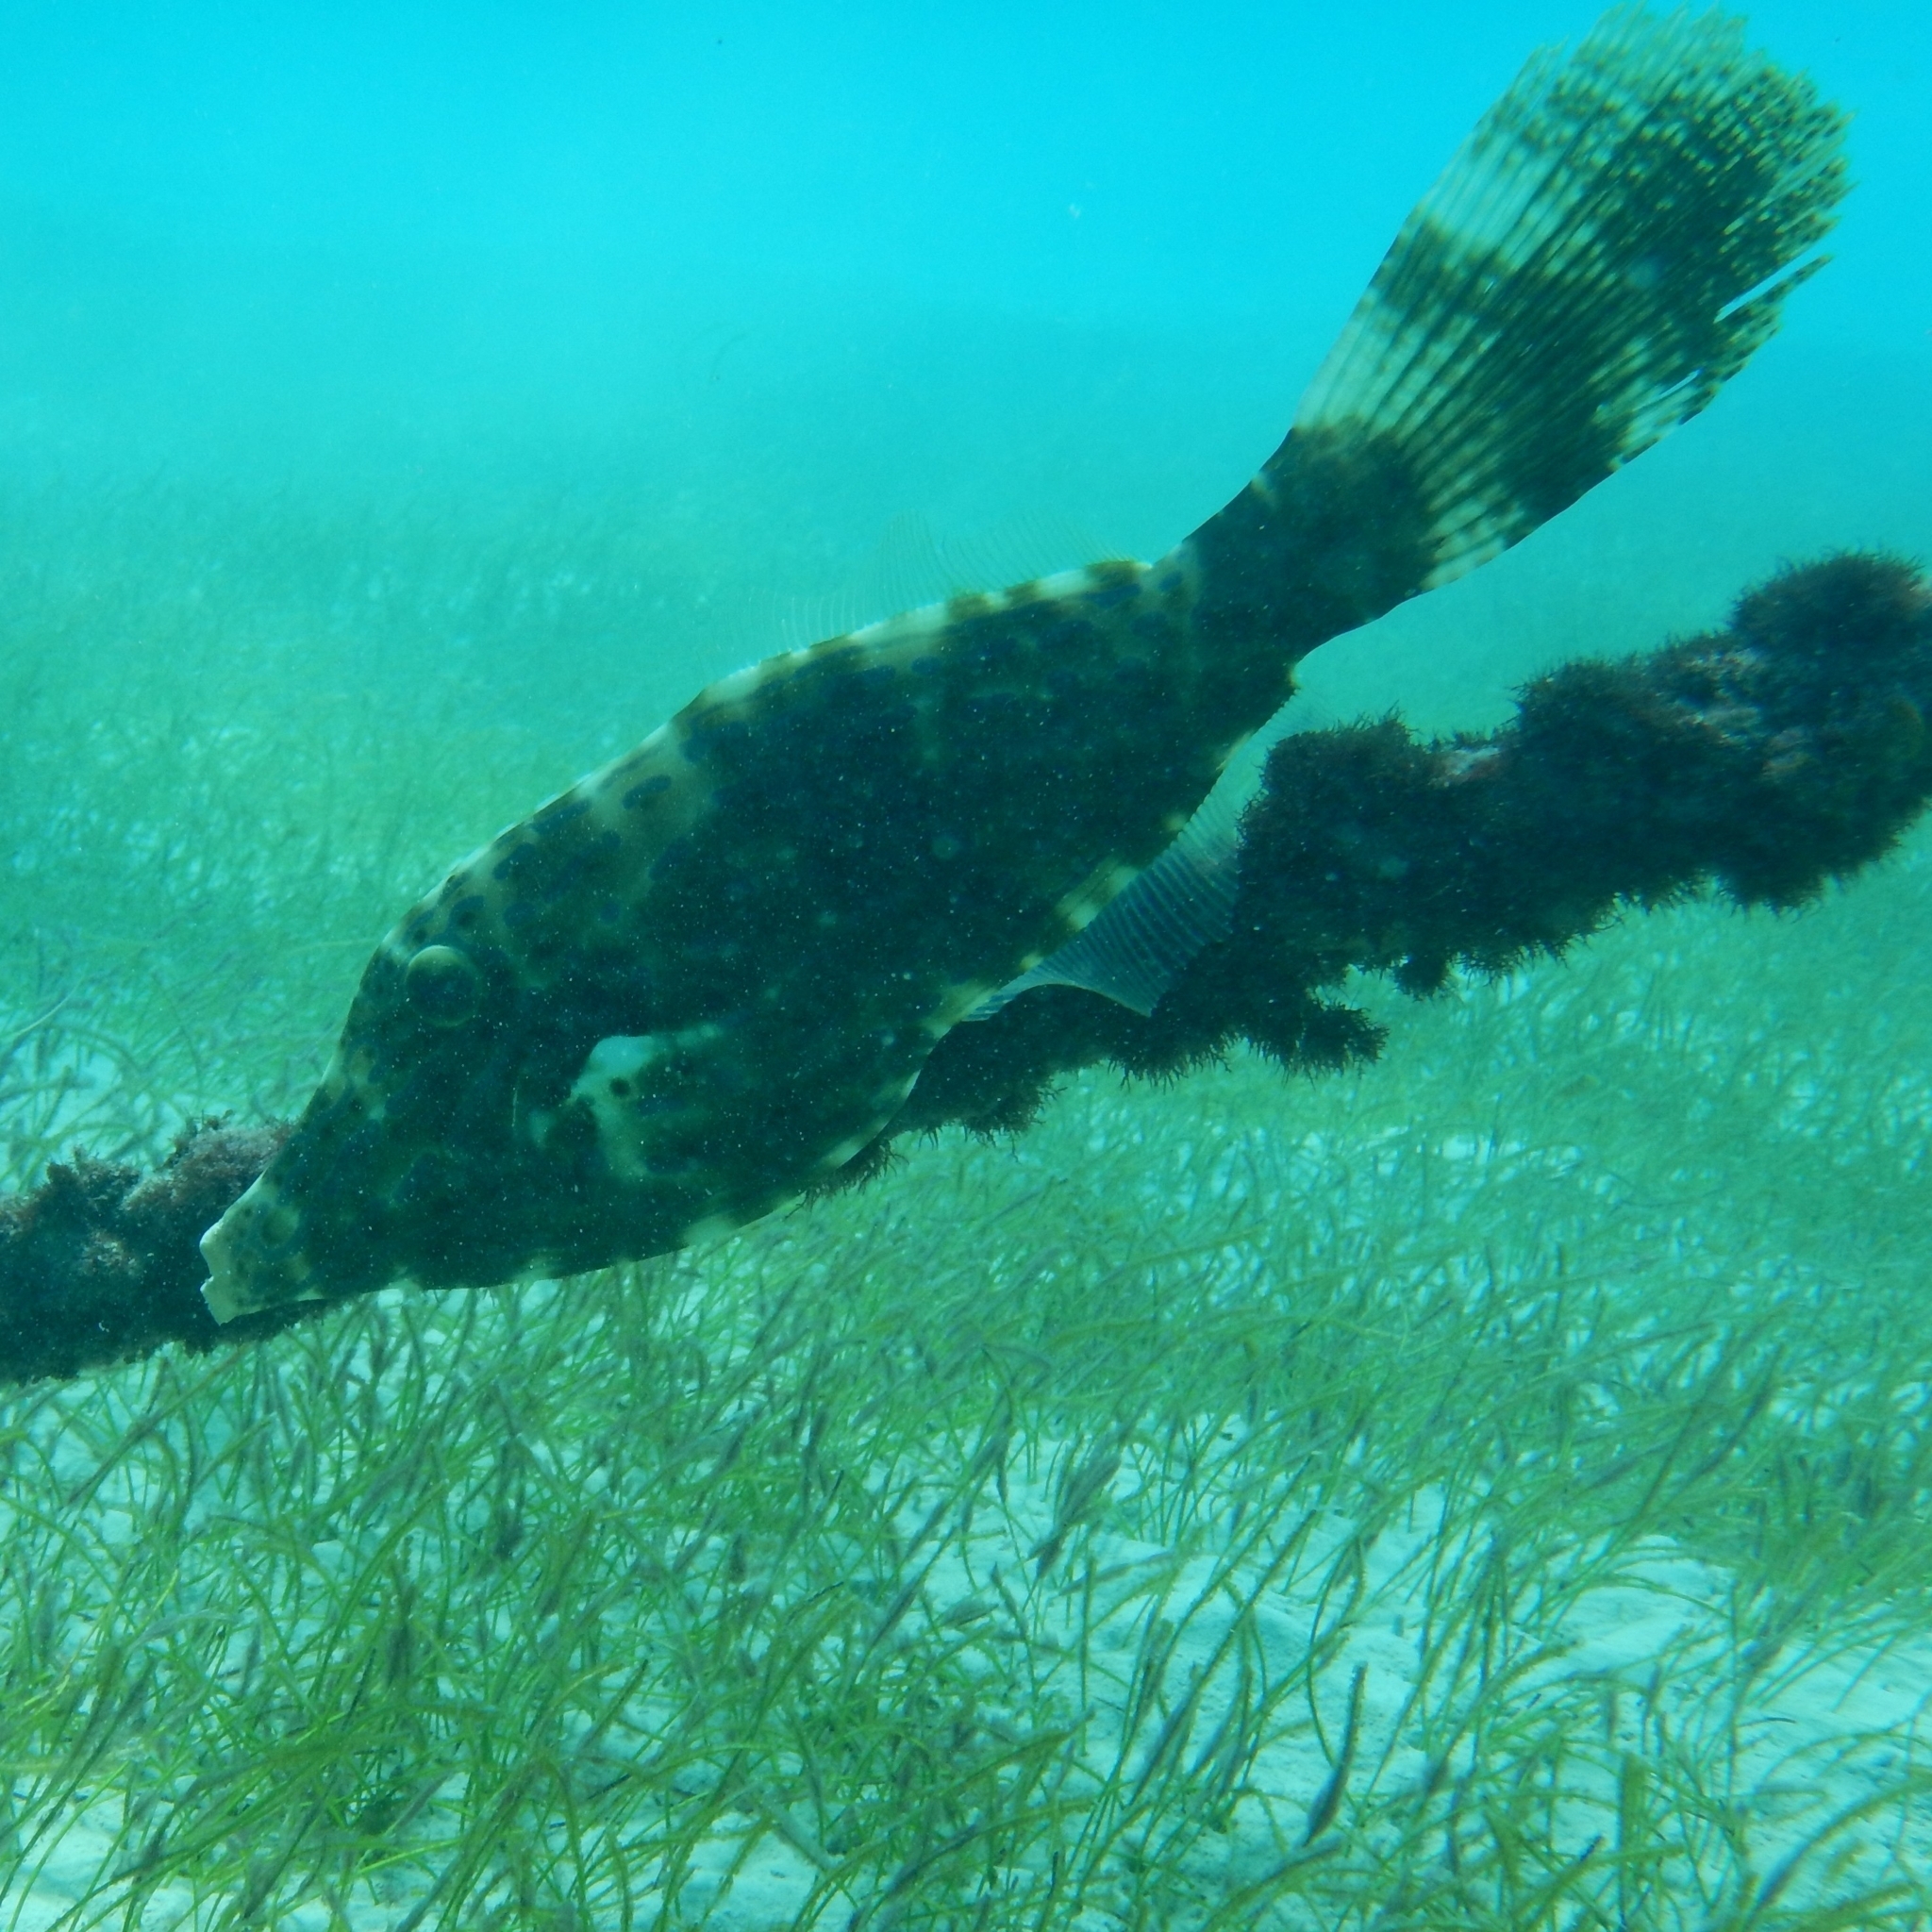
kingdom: Animalia
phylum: Chordata
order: Tetraodontiformes
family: Monacanthidae
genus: Aluterus
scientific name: Aluterus scriptus
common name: Scribbled leatherjacket filefish
